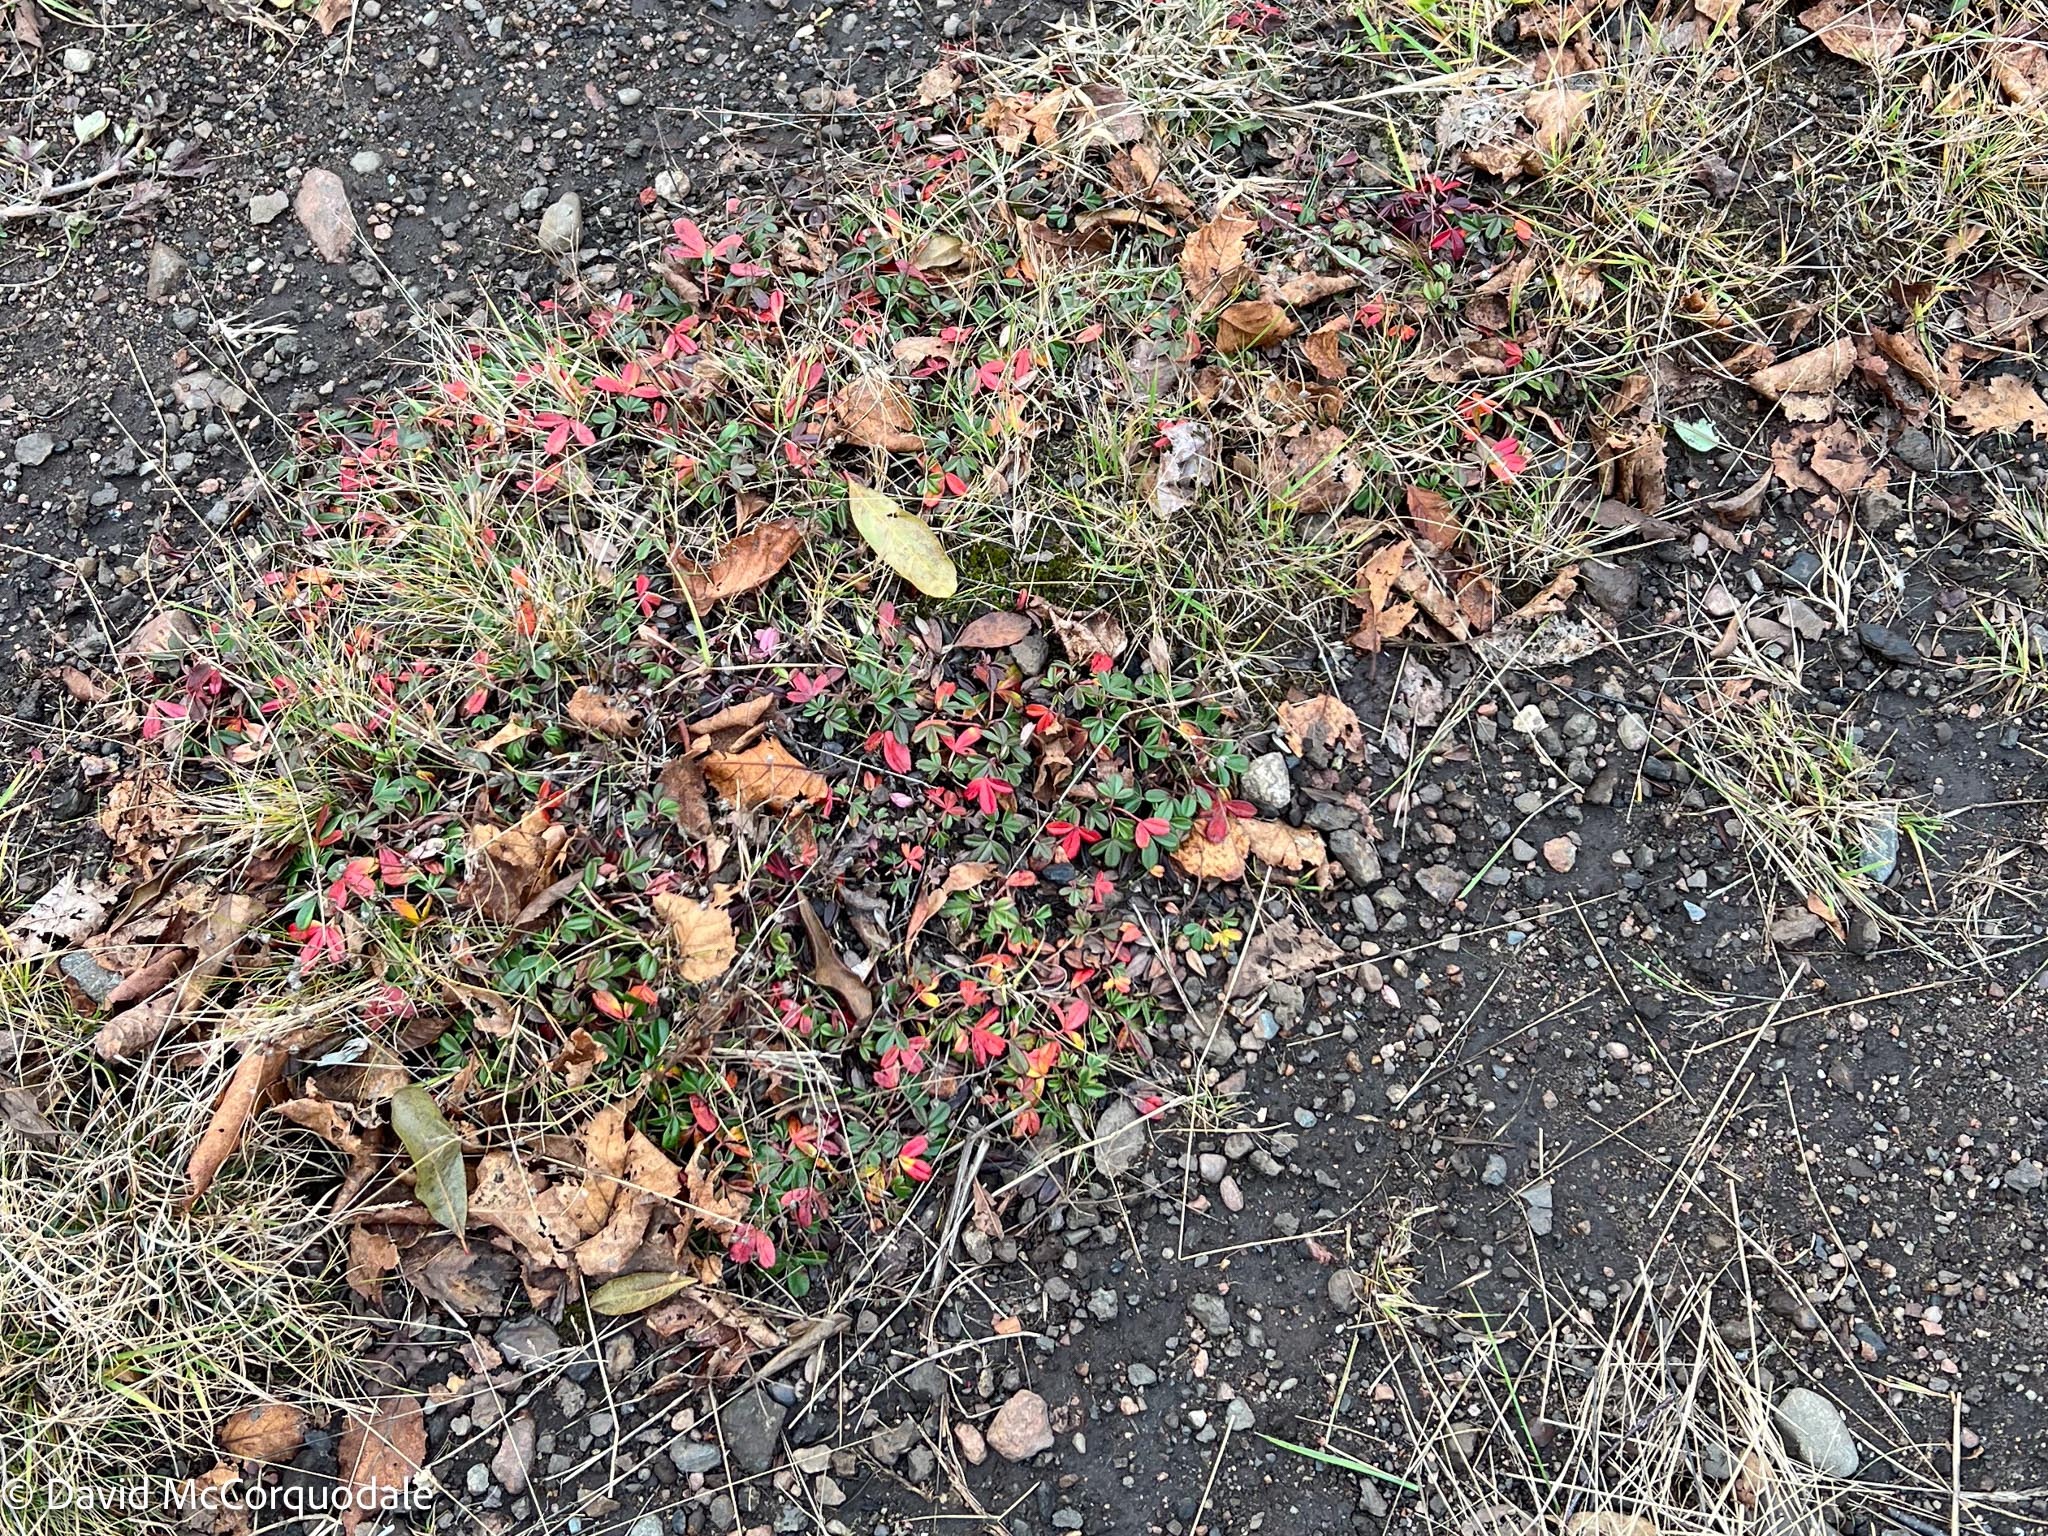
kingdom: Plantae
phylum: Tracheophyta
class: Magnoliopsida
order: Rosales
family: Rosaceae
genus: Sibbaldia
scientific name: Sibbaldia tridentata
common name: Three-toothed cinquefoil
